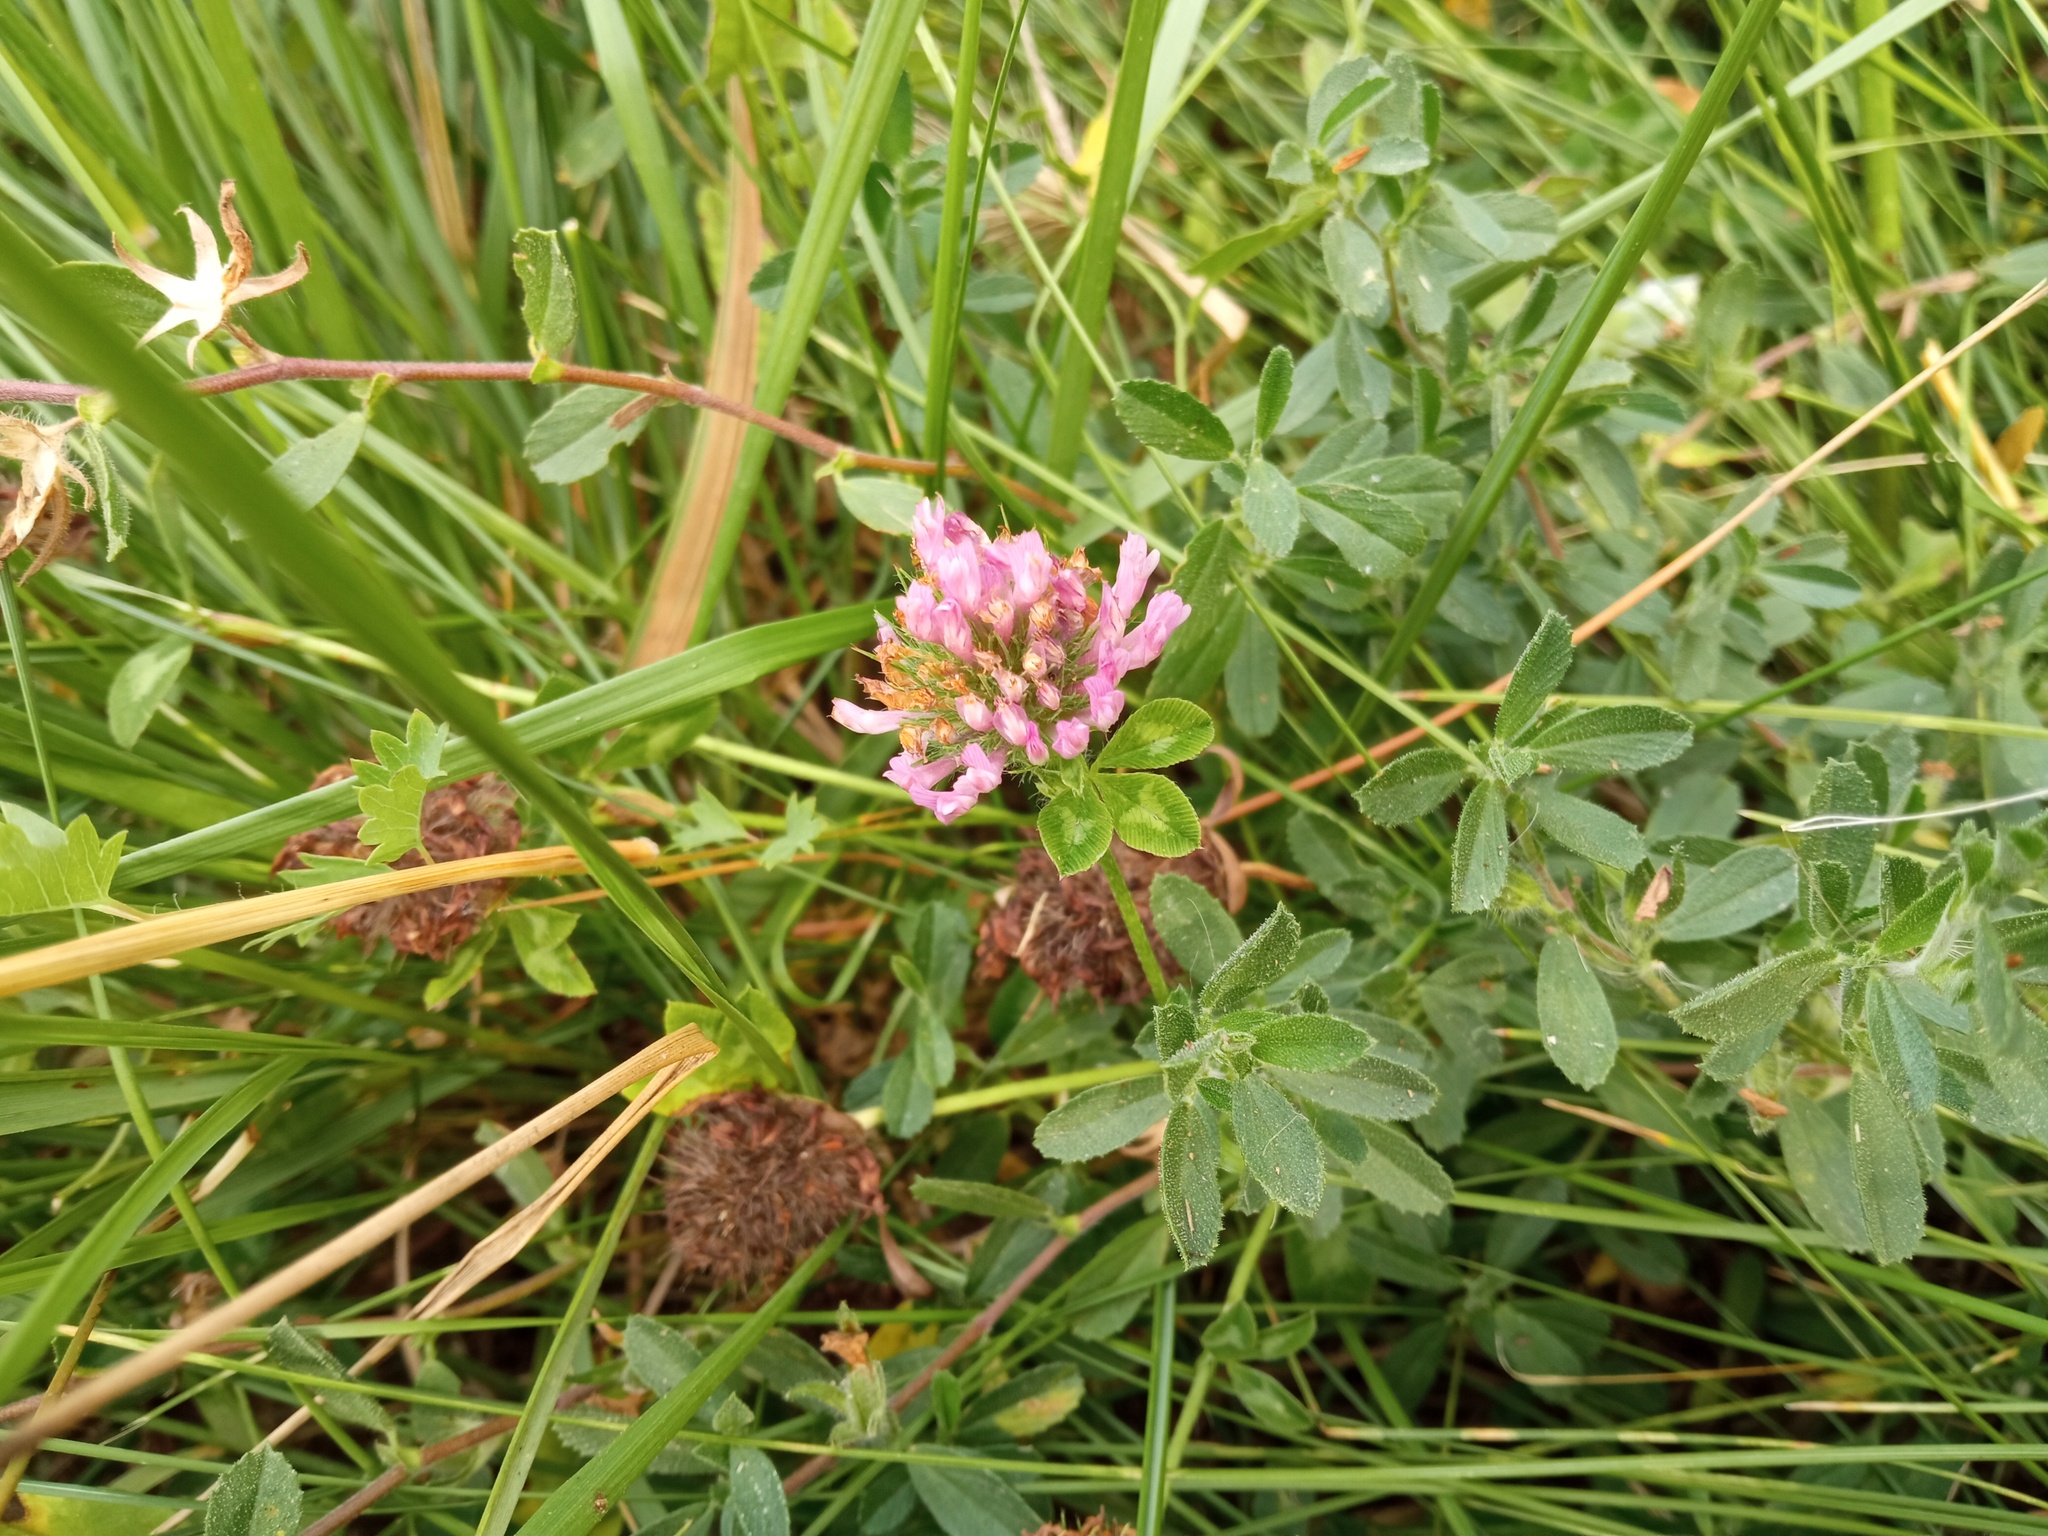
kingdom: Plantae
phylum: Tracheophyta
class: Magnoliopsida
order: Fabales
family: Fabaceae
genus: Trifolium
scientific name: Trifolium pratense
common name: Red clover
